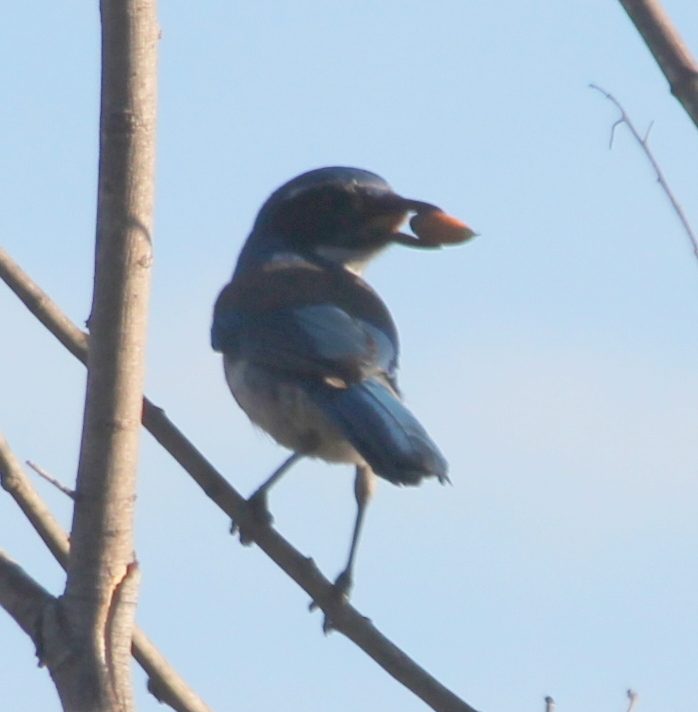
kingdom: Animalia
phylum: Chordata
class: Aves
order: Passeriformes
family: Corvidae
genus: Aphelocoma
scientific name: Aphelocoma californica
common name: California scrub-jay
